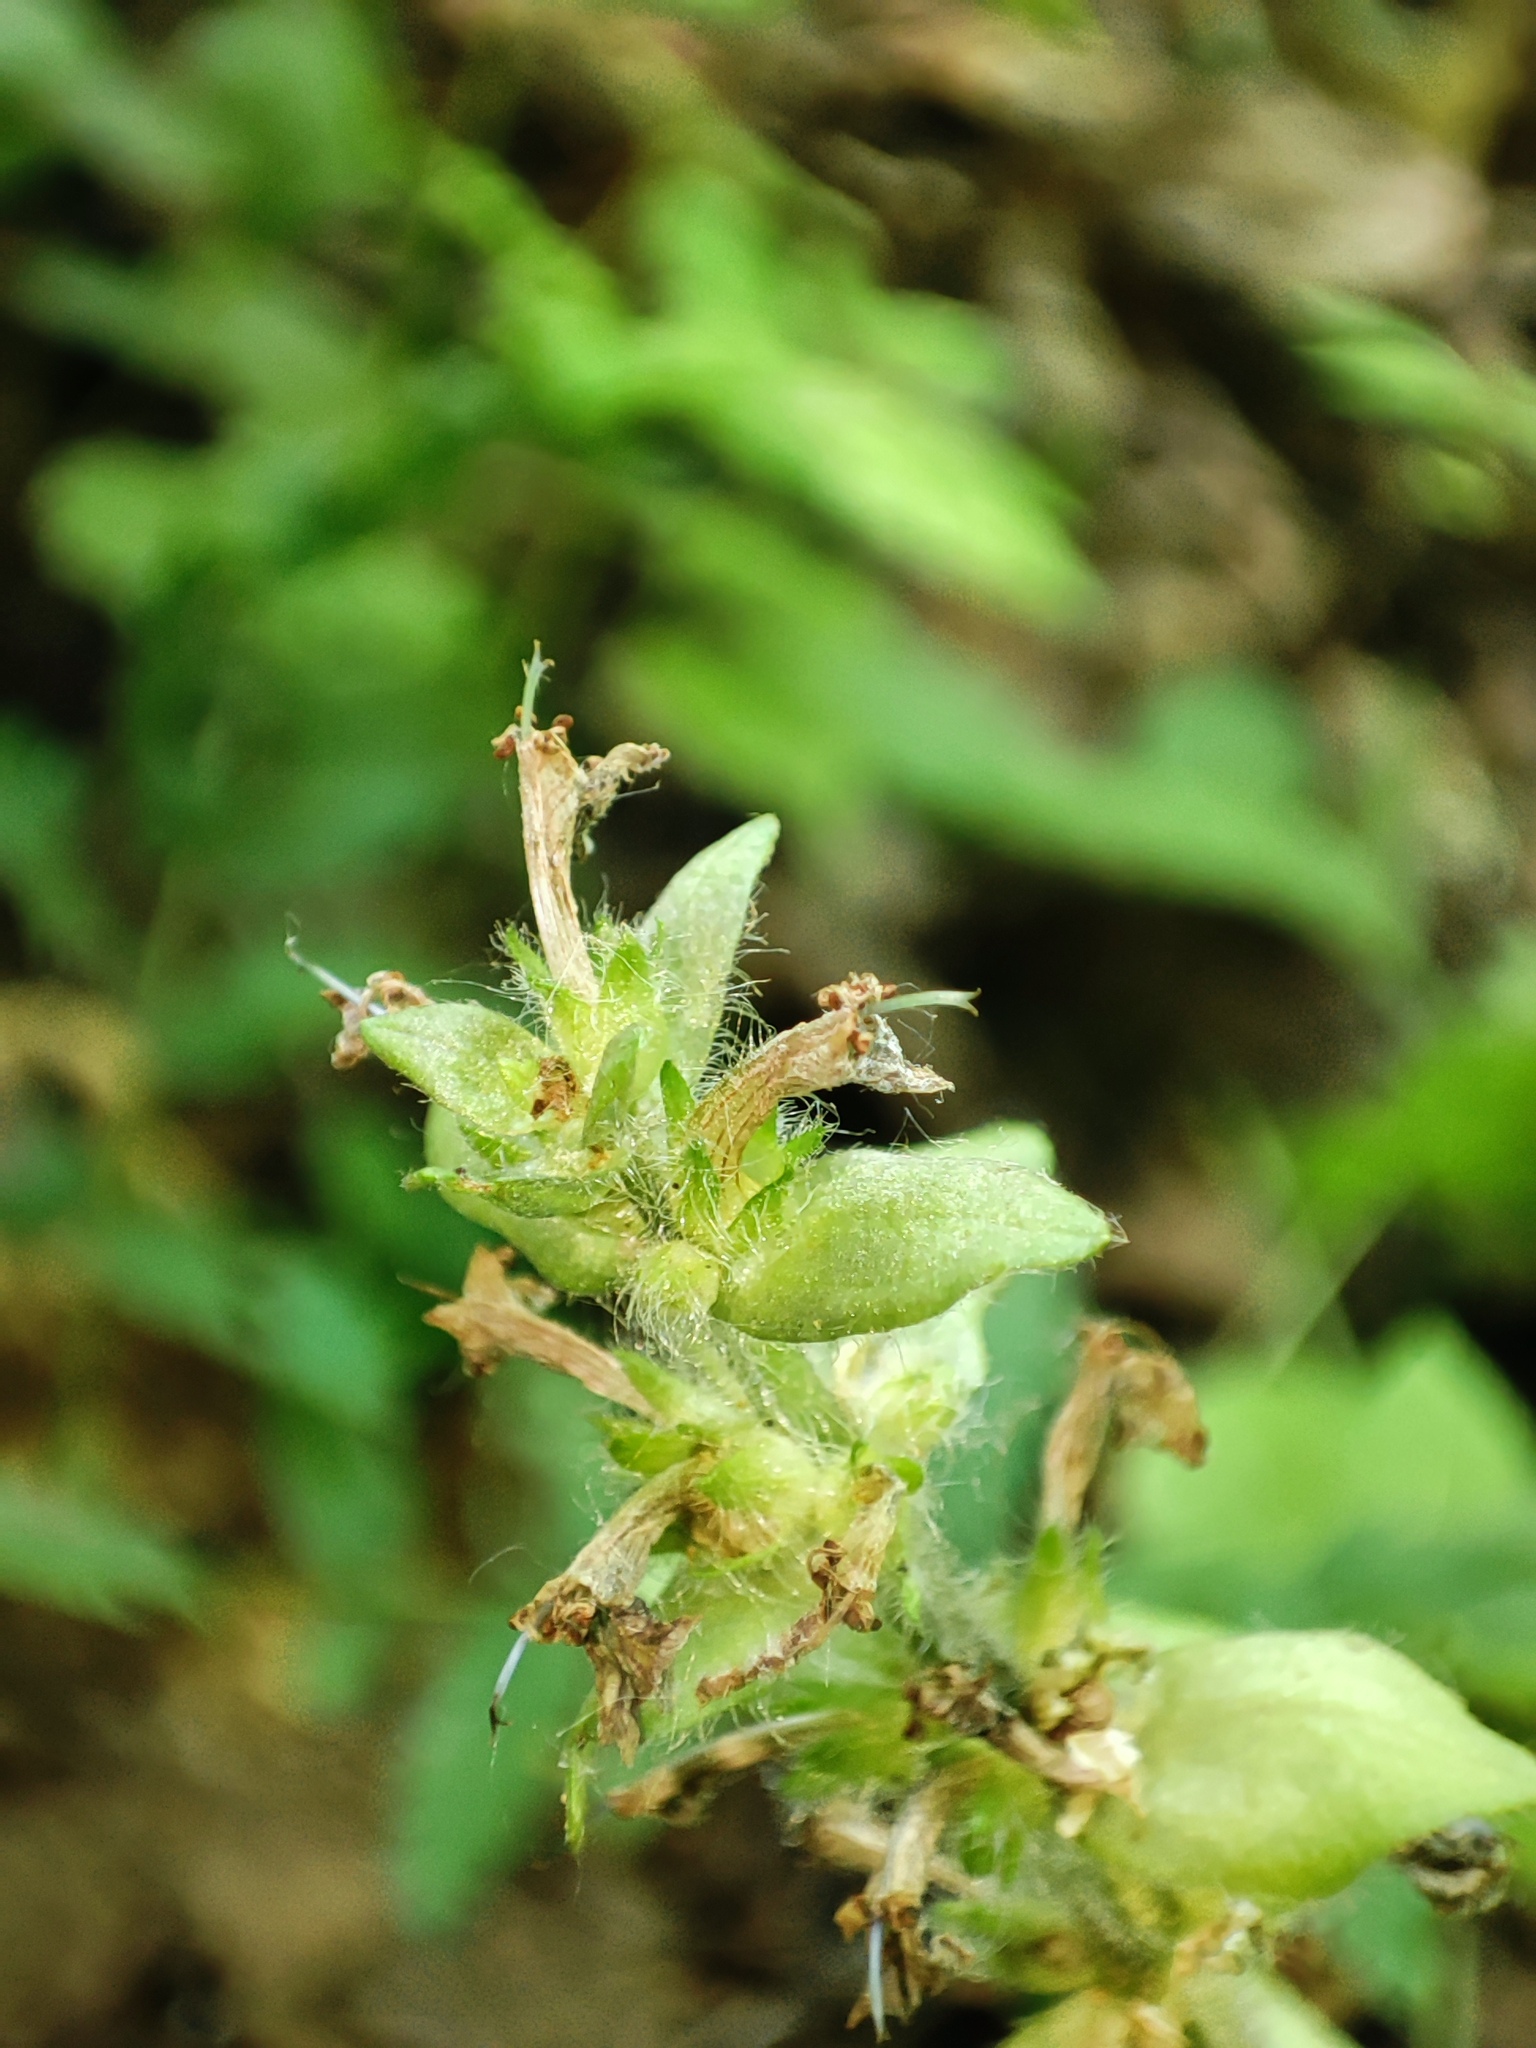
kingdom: Plantae
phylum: Tracheophyta
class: Magnoliopsida
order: Lamiales
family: Lamiaceae
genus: Ajuga
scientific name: Ajuga reptans
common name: Bugle
